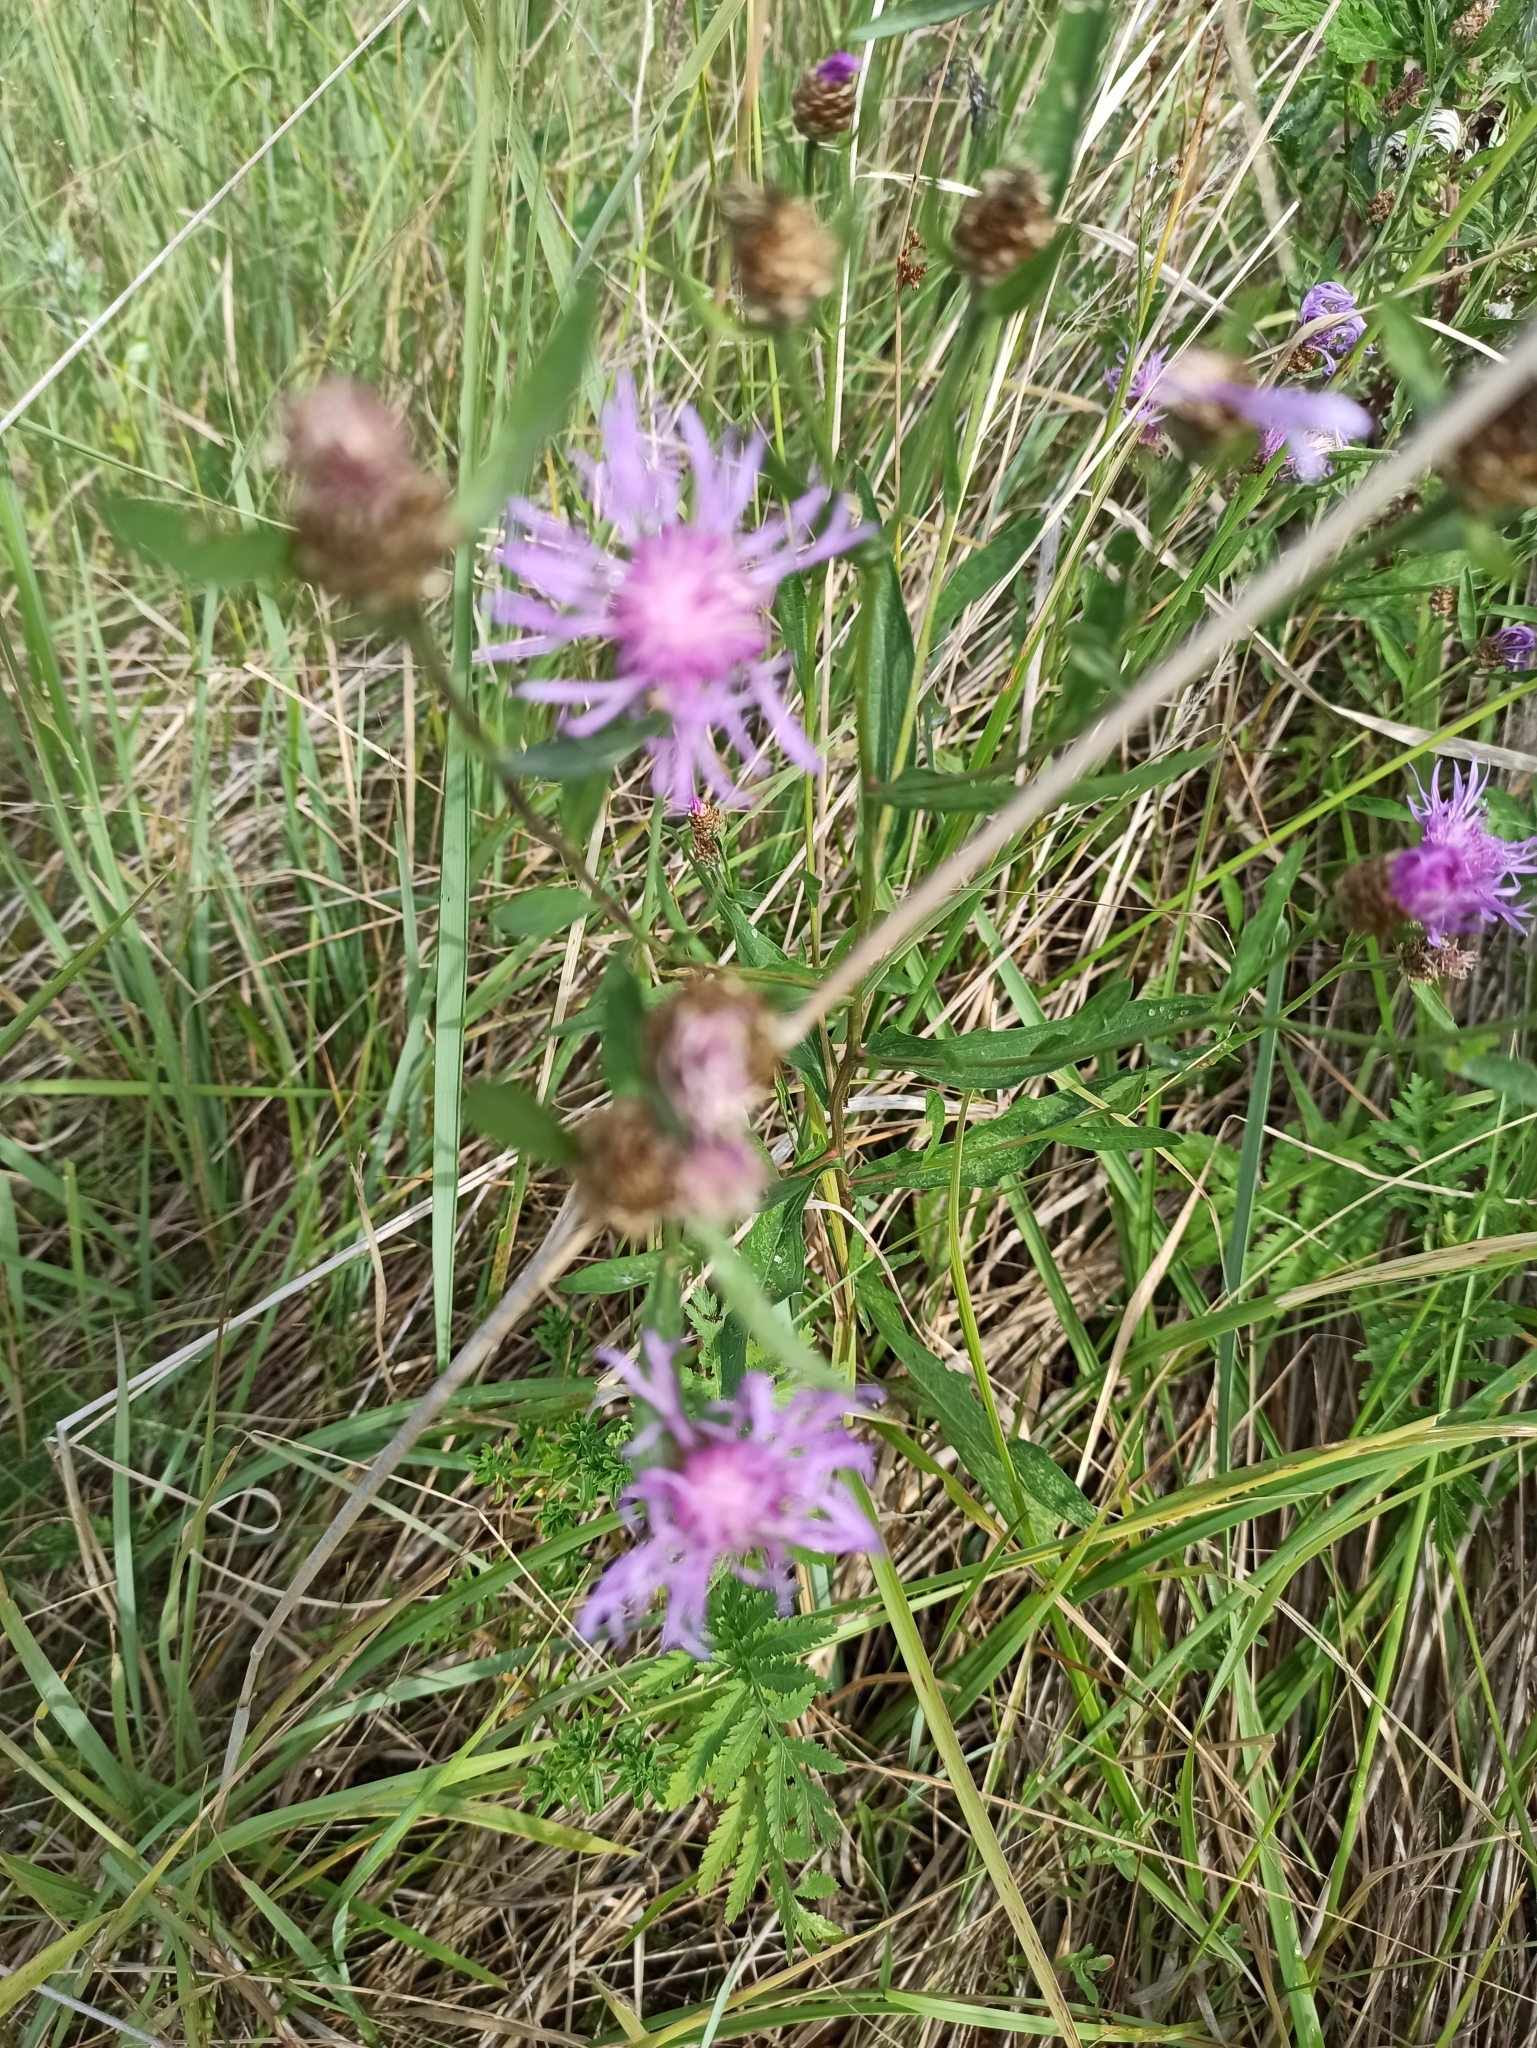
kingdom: Plantae
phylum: Tracheophyta
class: Magnoliopsida
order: Asterales
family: Asteraceae
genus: Centaurea
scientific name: Centaurea jacea
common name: Brown knapweed
